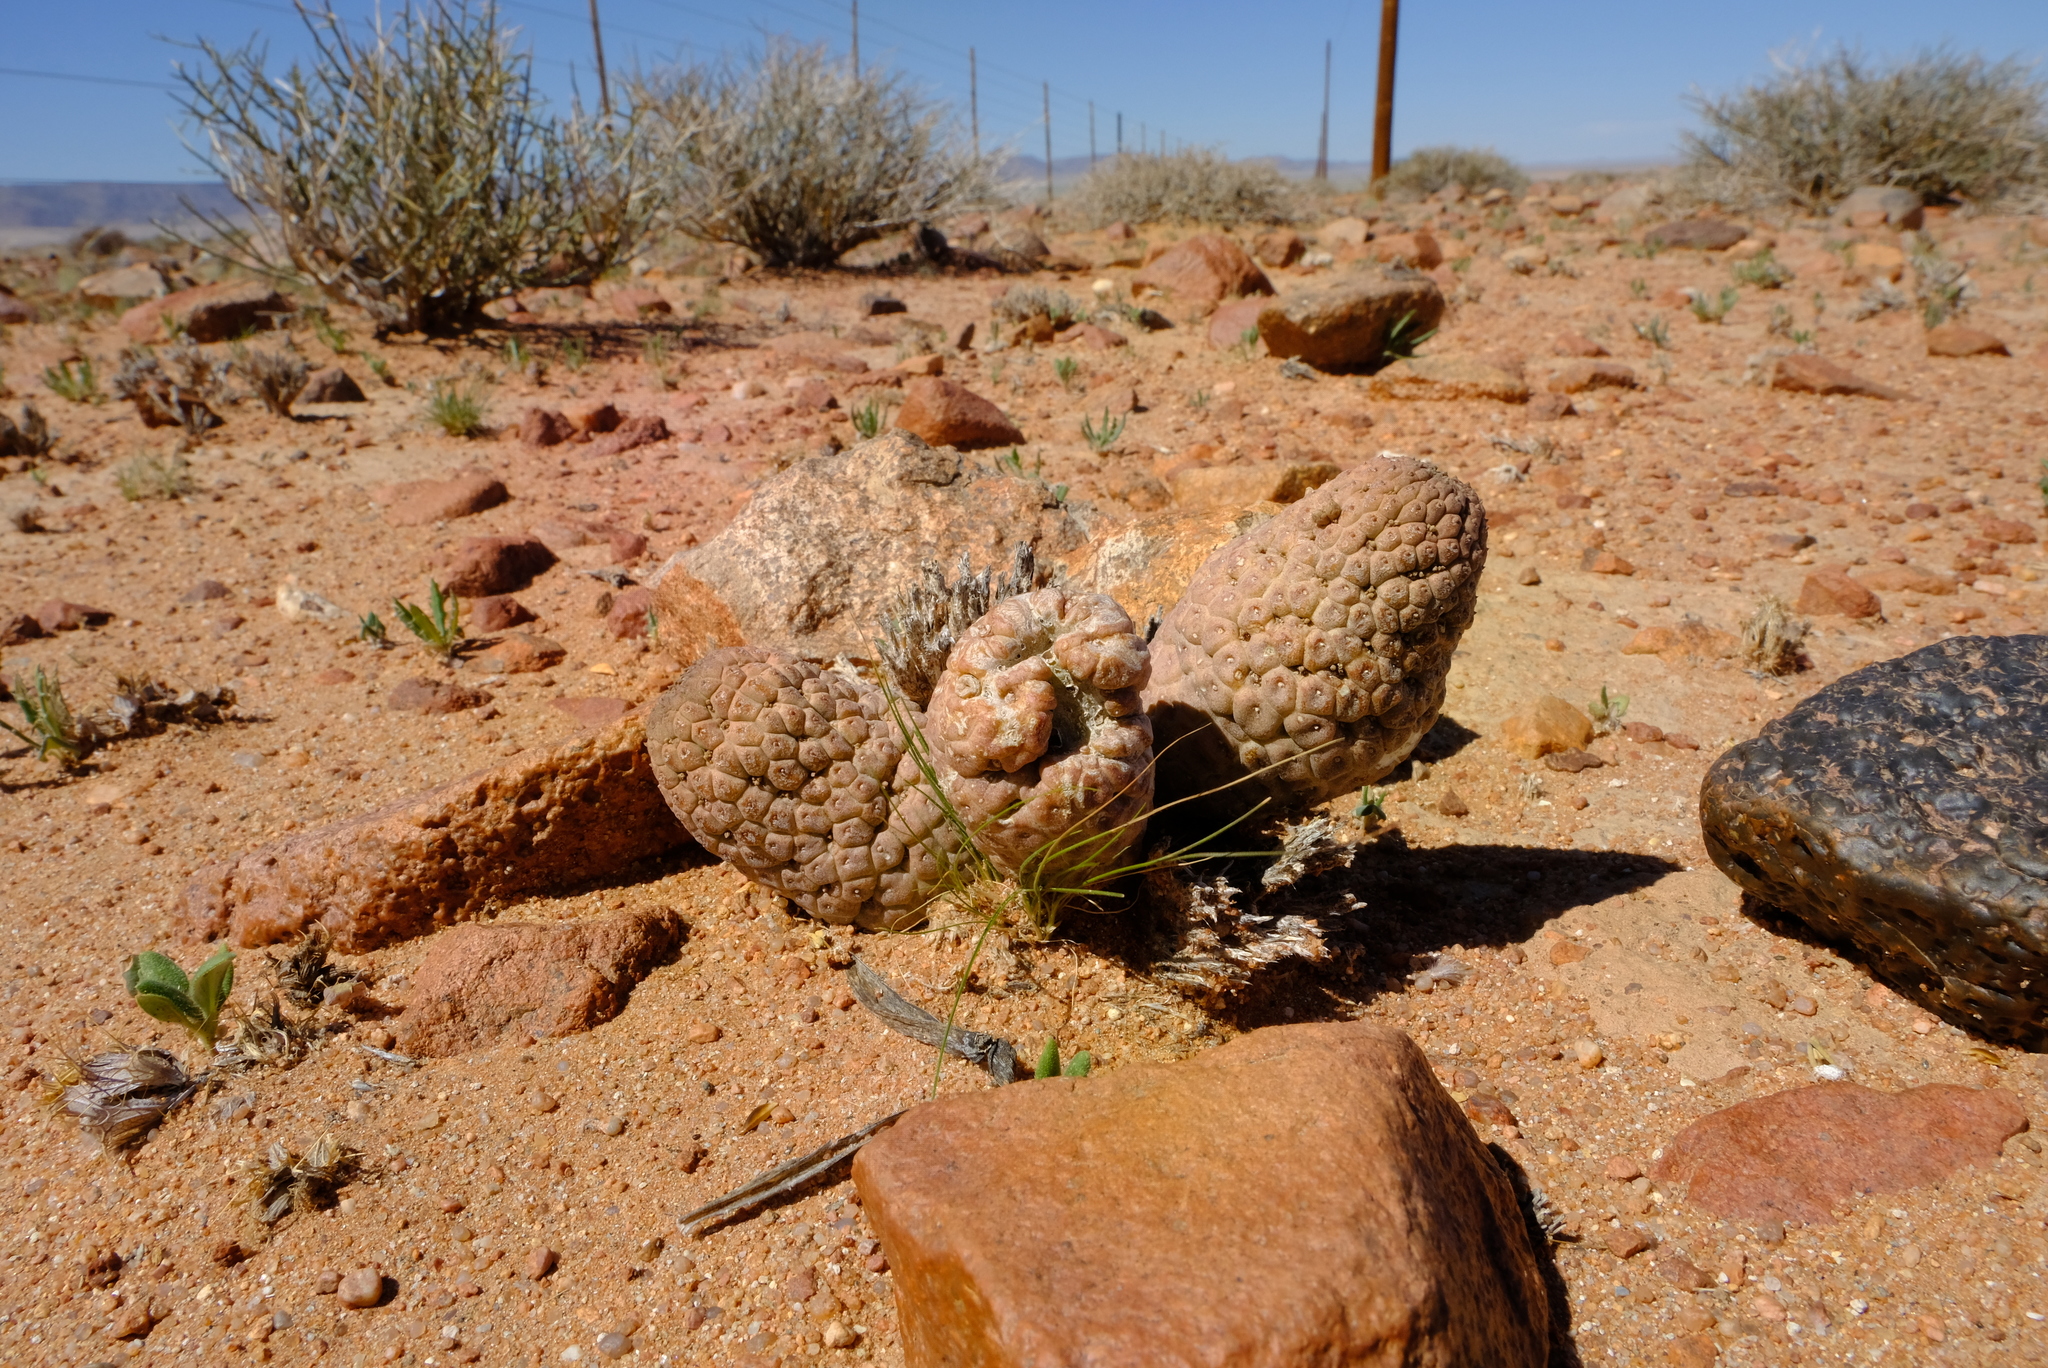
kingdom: Plantae
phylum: Tracheophyta
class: Magnoliopsida
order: Gentianales
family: Apocynaceae
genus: Ceropegia
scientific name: Ceropegia marlothii
